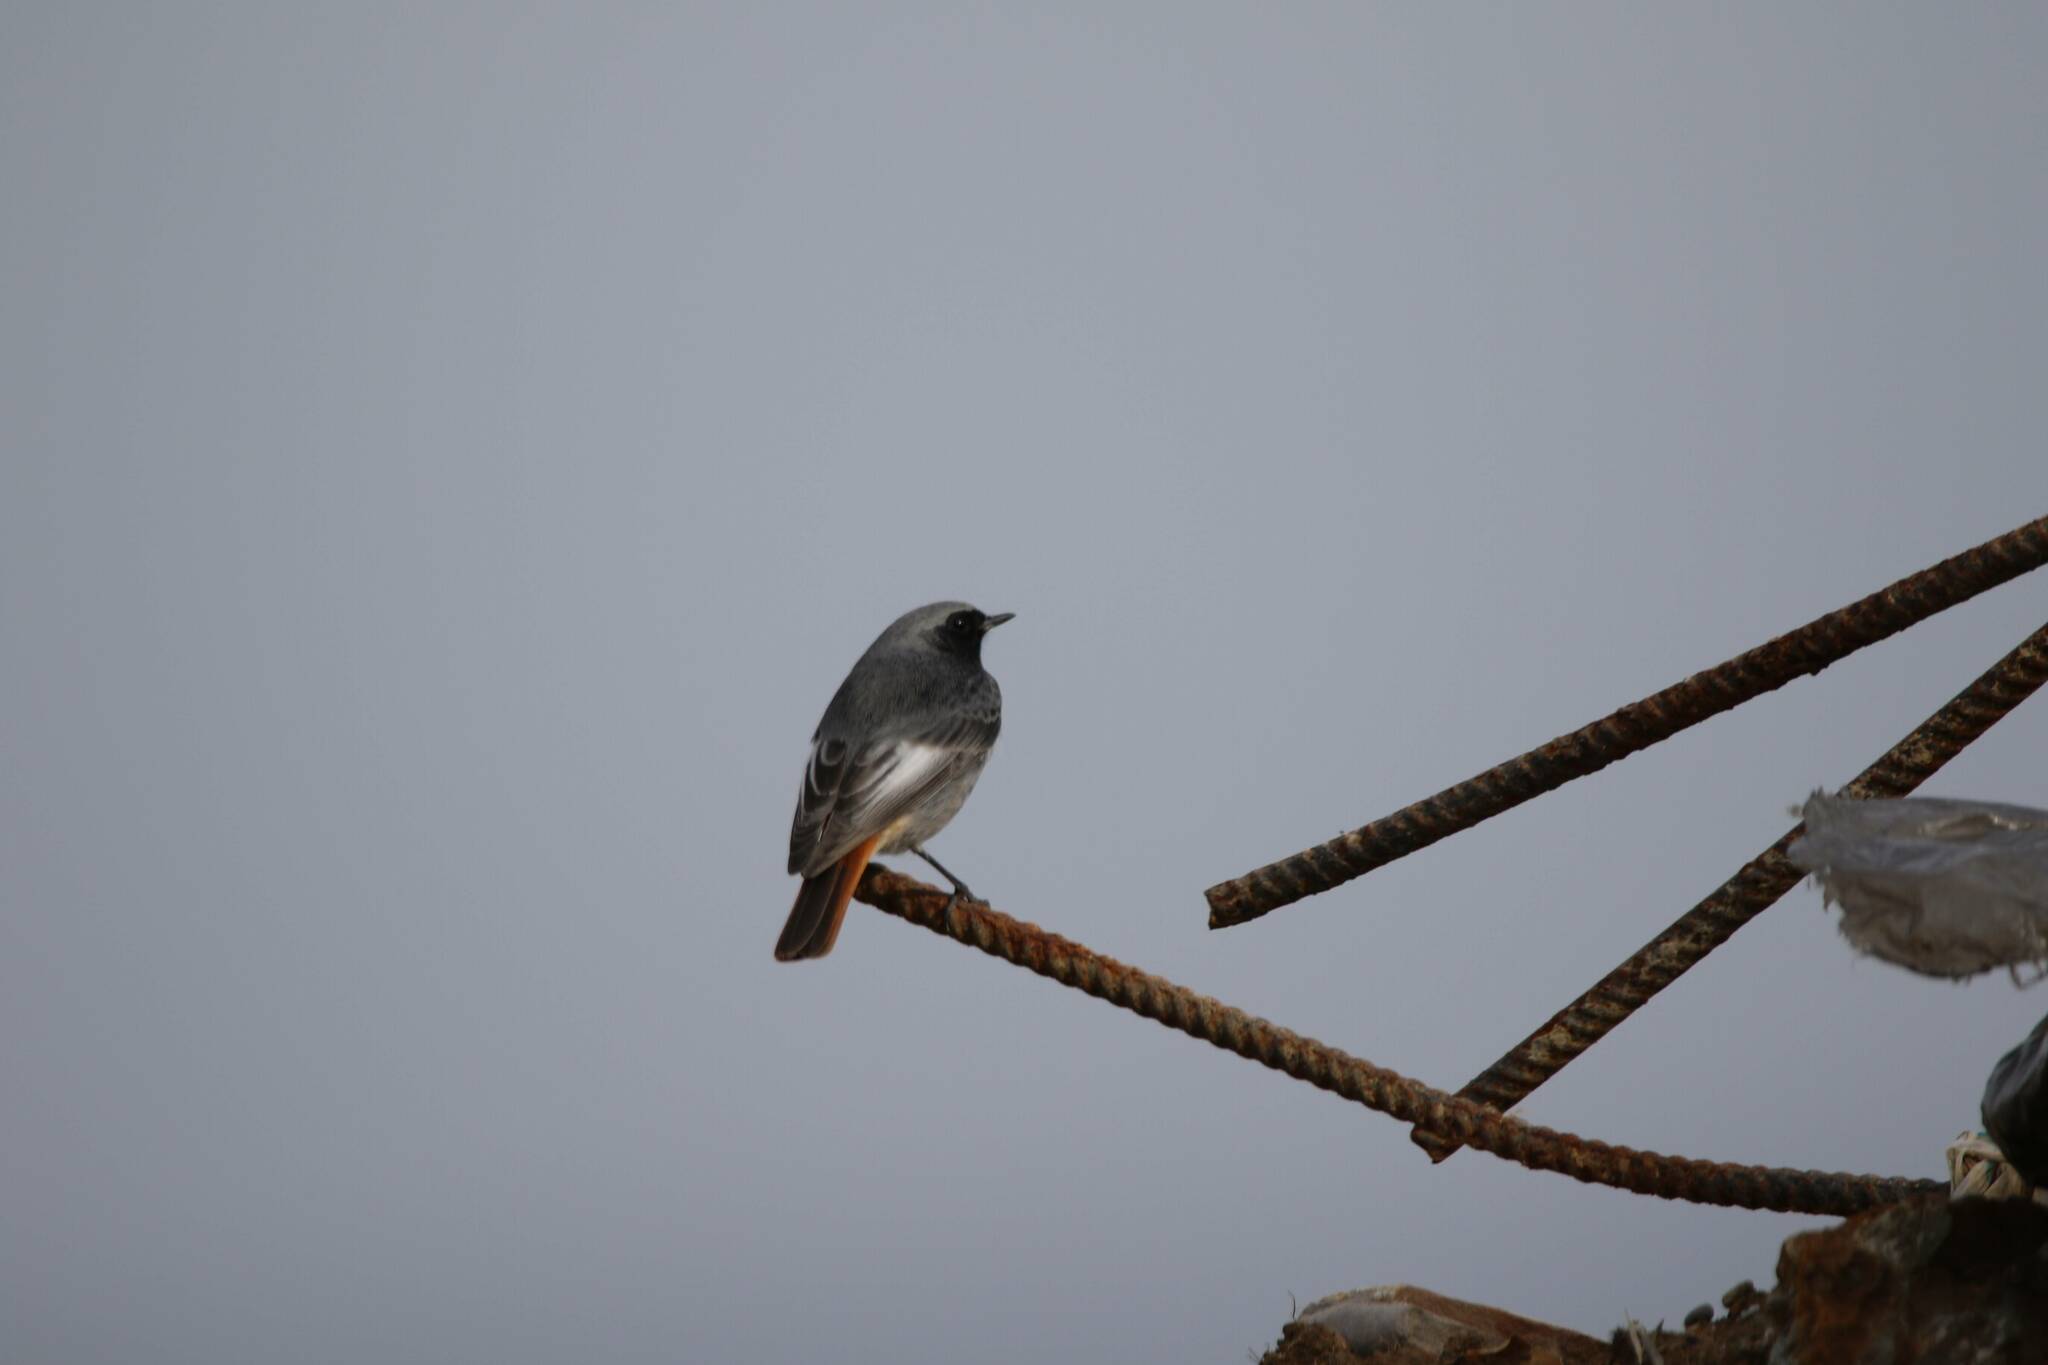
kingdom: Animalia
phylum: Chordata
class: Aves
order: Passeriformes
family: Muscicapidae
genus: Phoenicurus
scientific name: Phoenicurus ochruros
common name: Black redstart
